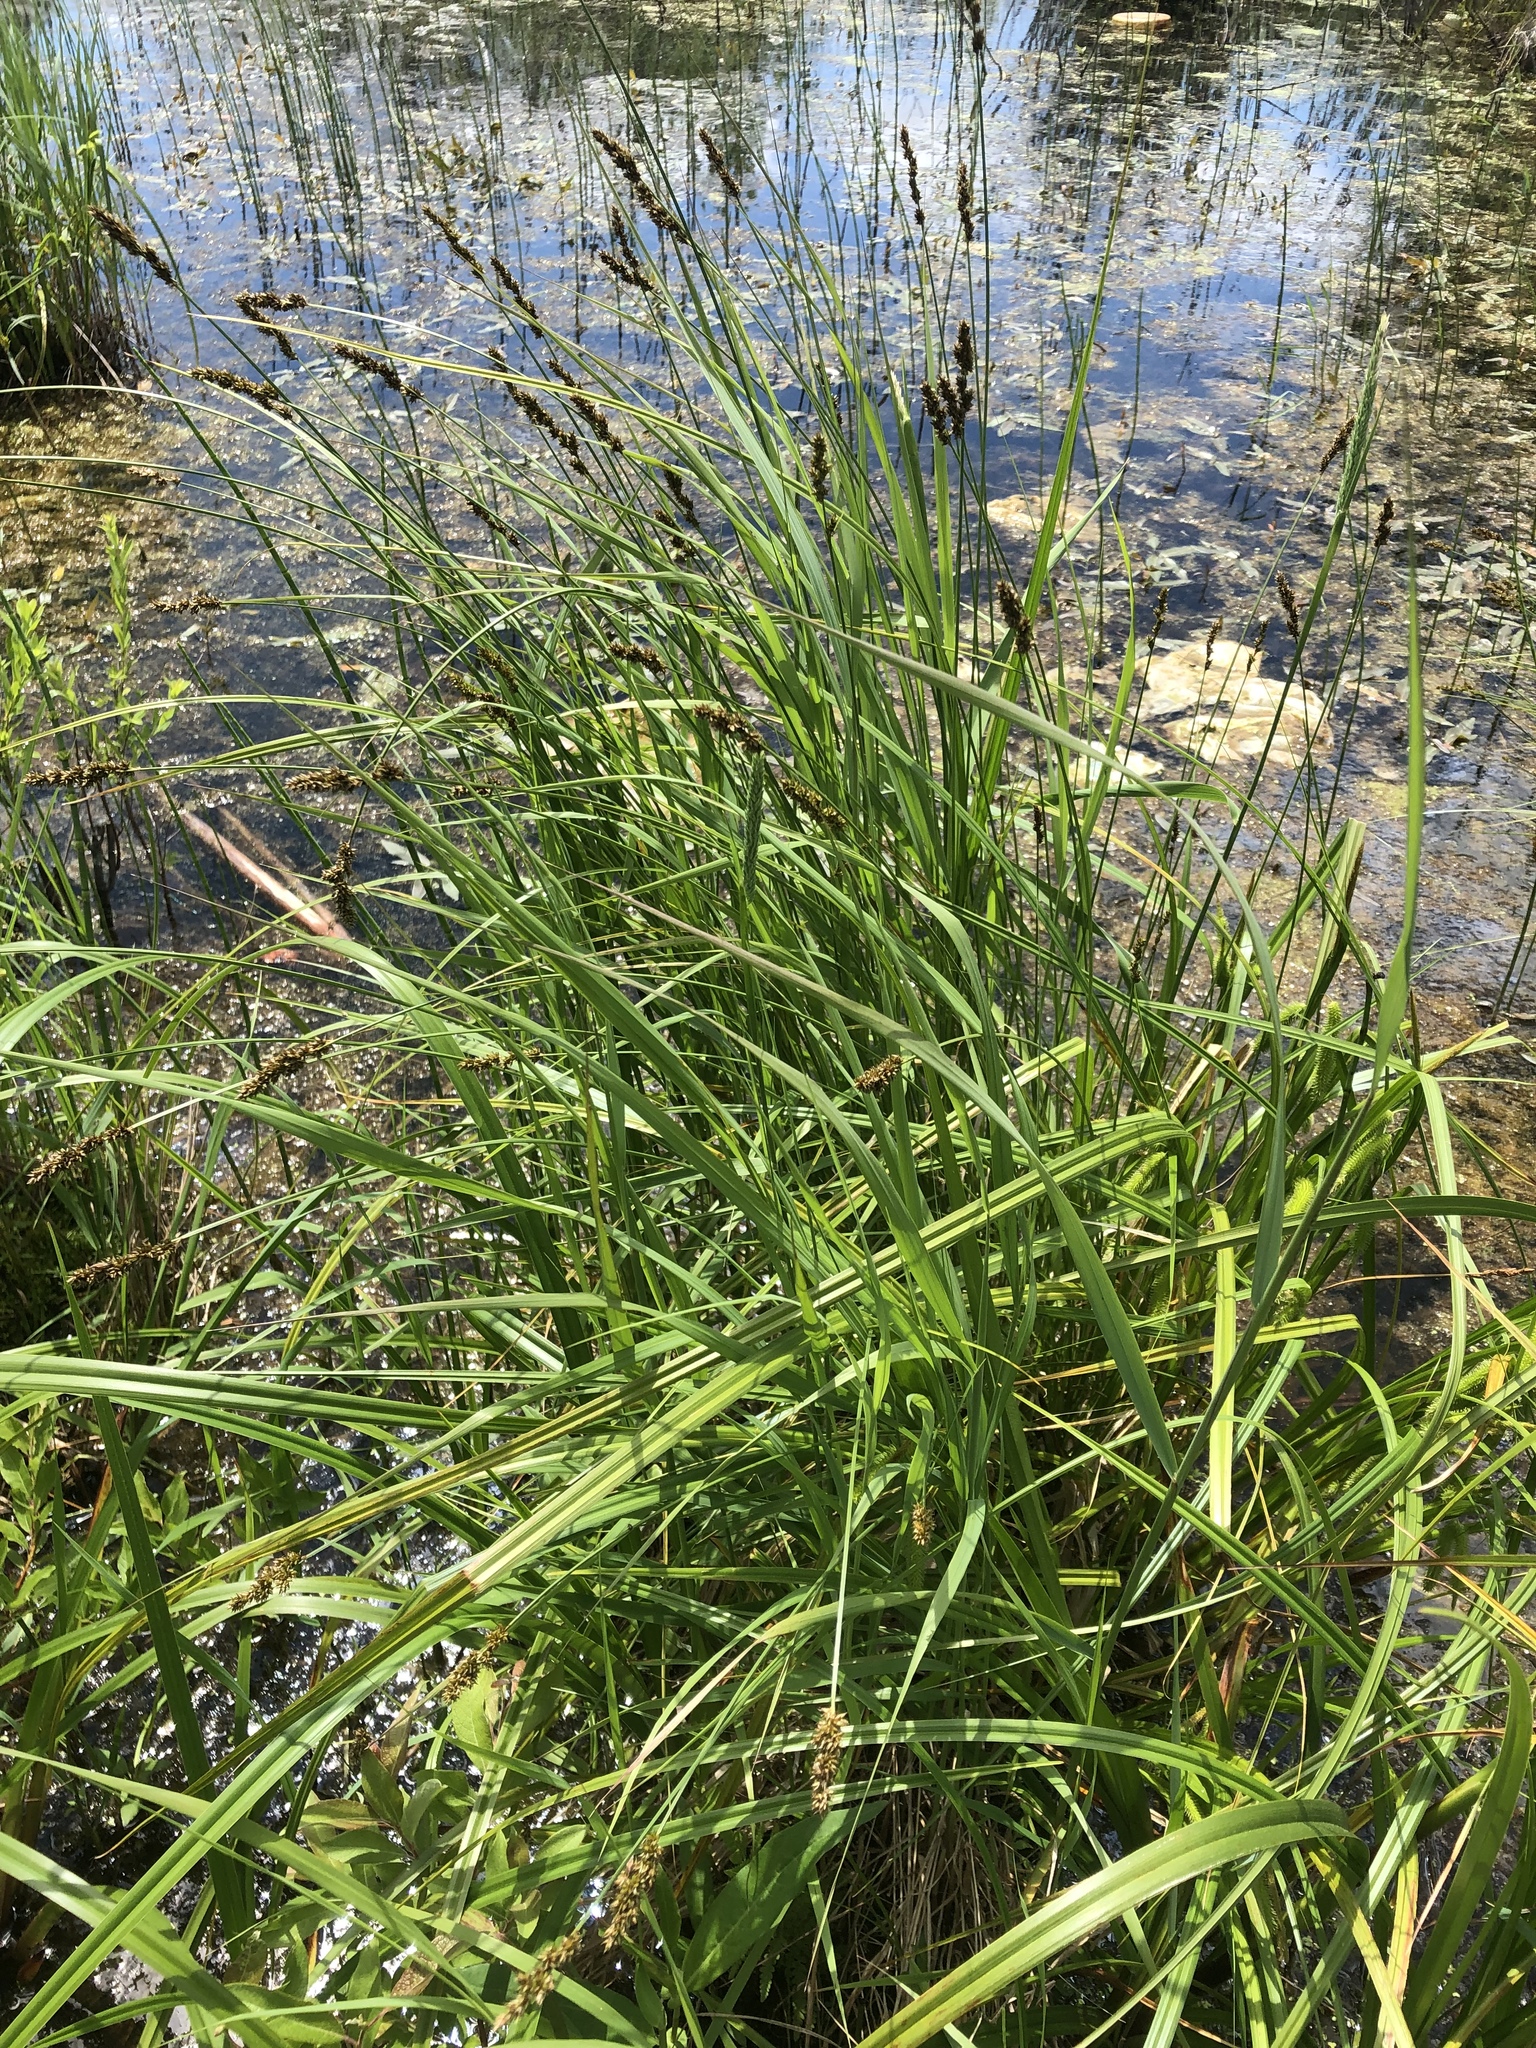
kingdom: Plantae
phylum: Tracheophyta
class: Liliopsida
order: Poales
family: Cyperaceae
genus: Carex
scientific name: Carex diandra
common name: Lesser tussock-sedge
